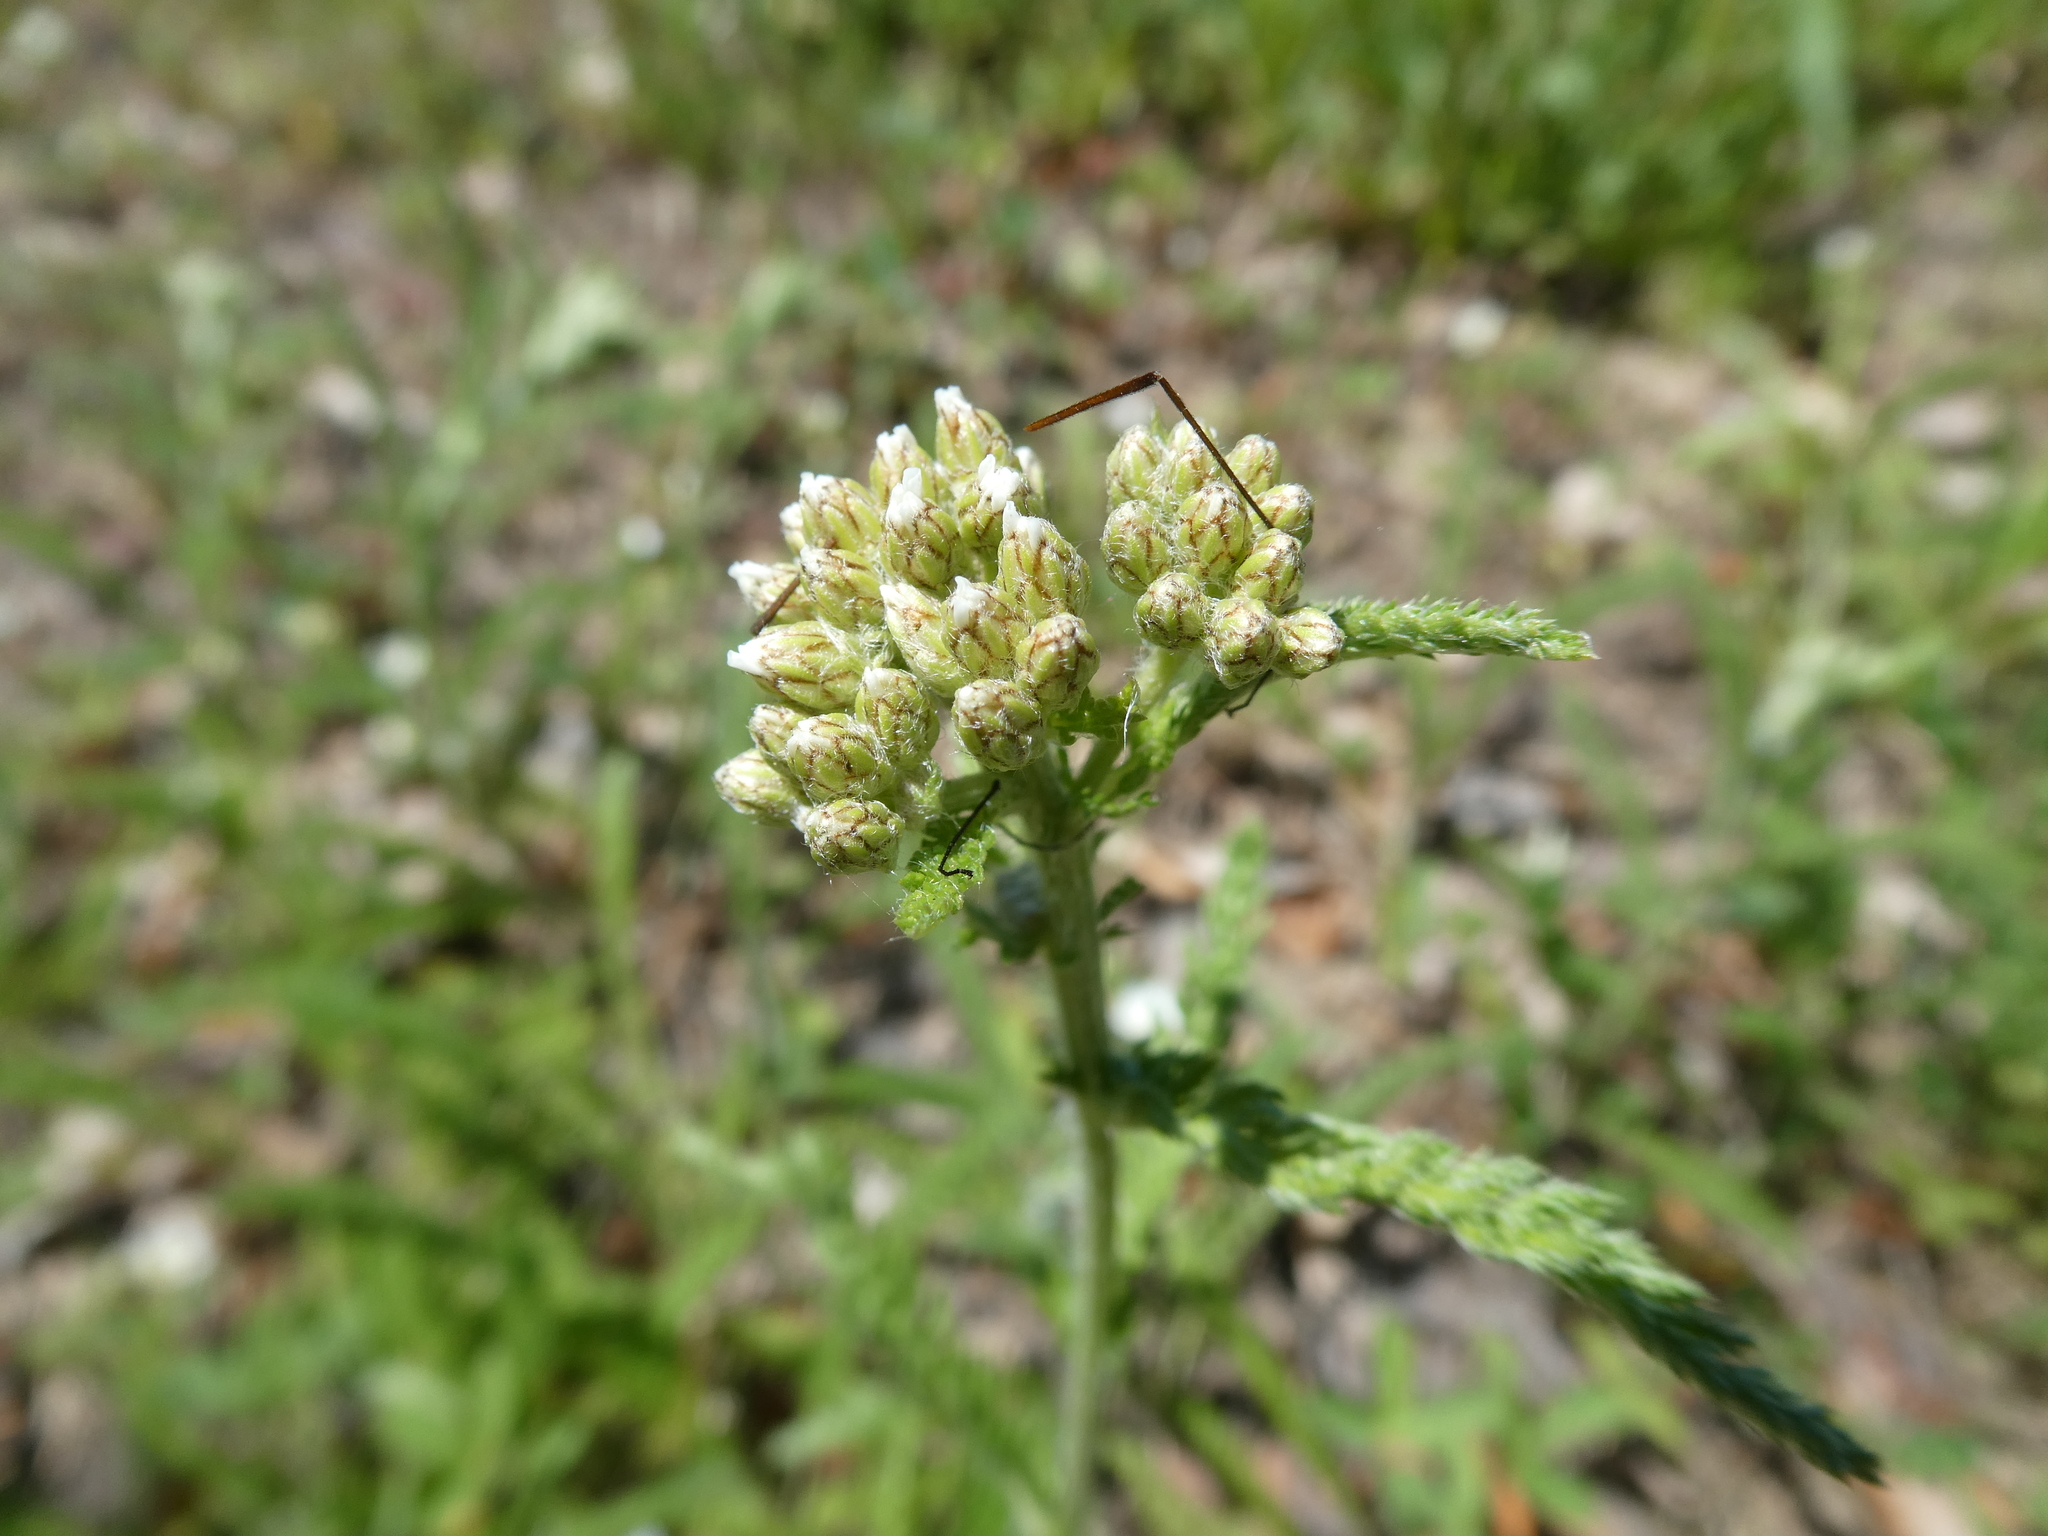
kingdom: Plantae
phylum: Tracheophyta
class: Magnoliopsida
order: Asterales
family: Asteraceae
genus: Achillea
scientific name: Achillea millefolium
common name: Yarrow
